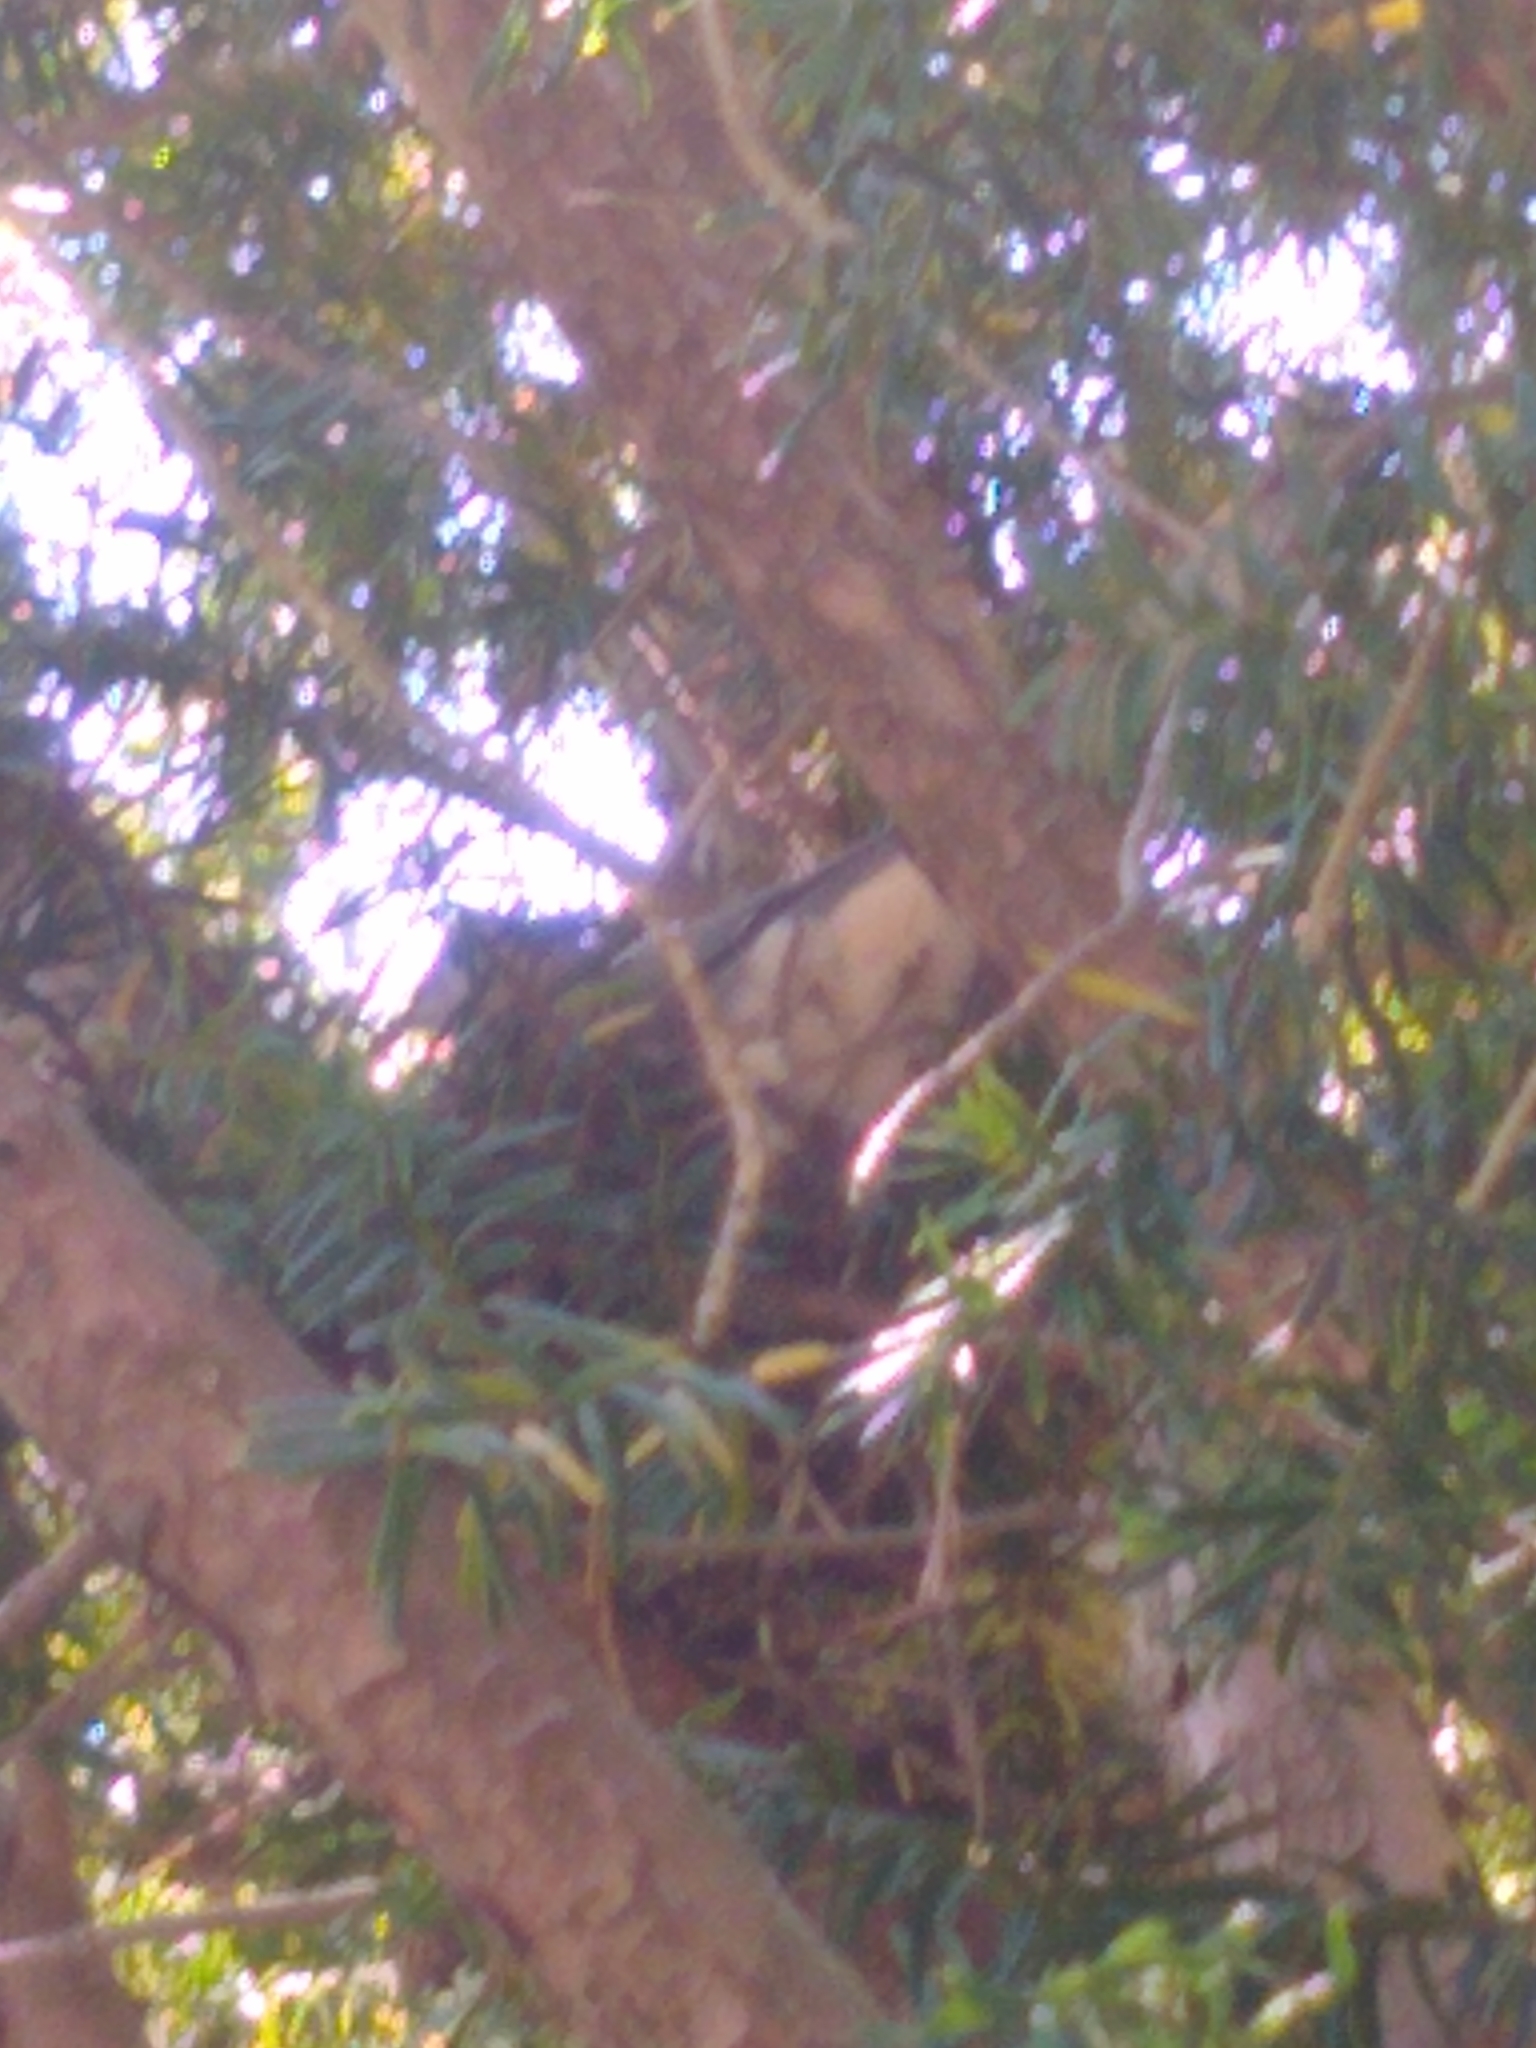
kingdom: Animalia
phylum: Chordata
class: Aves
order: Columbiformes
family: Columbidae
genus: Zenaida
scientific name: Zenaida macroura
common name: Mourning dove
